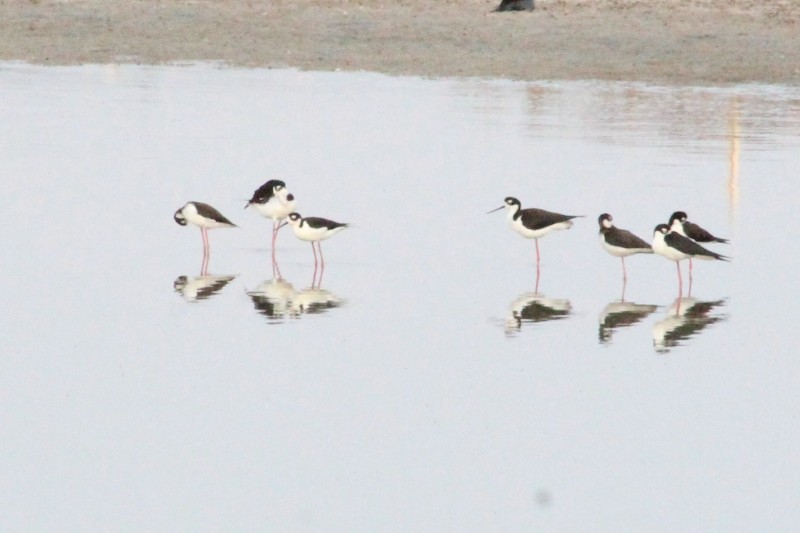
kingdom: Animalia
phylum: Chordata
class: Aves
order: Charadriiformes
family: Recurvirostridae
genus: Himantopus
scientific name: Himantopus mexicanus
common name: Black-necked stilt
